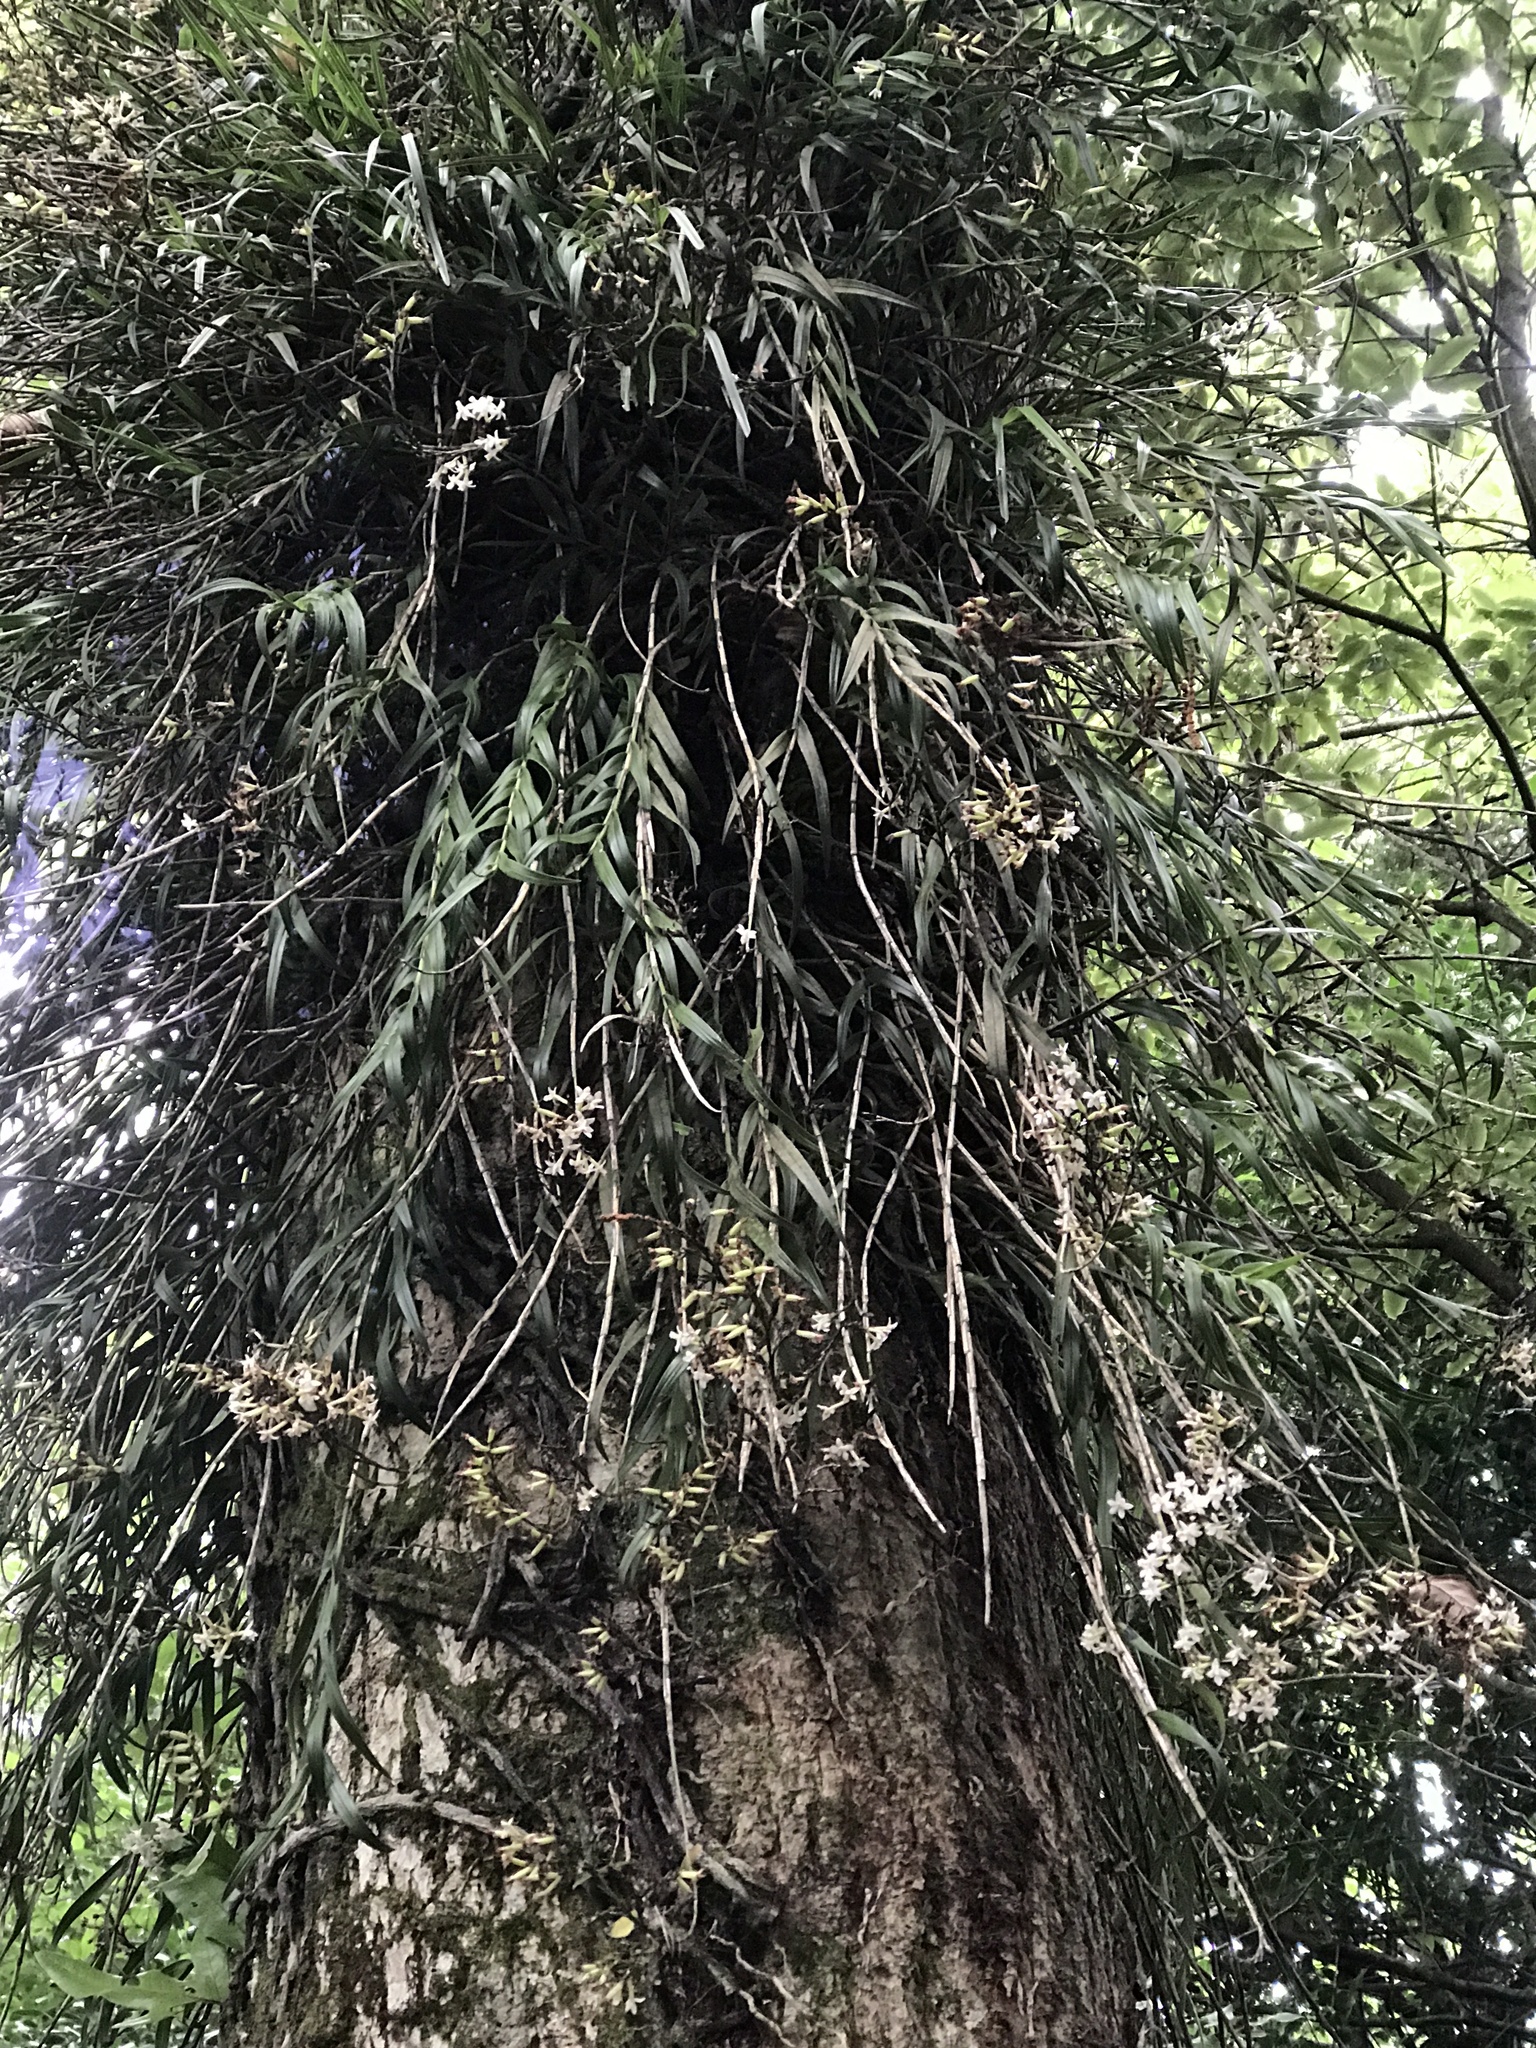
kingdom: Plantae
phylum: Tracheophyta
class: Liliopsida
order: Asparagales
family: Orchidaceae
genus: Earina
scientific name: Earina autumnalis
